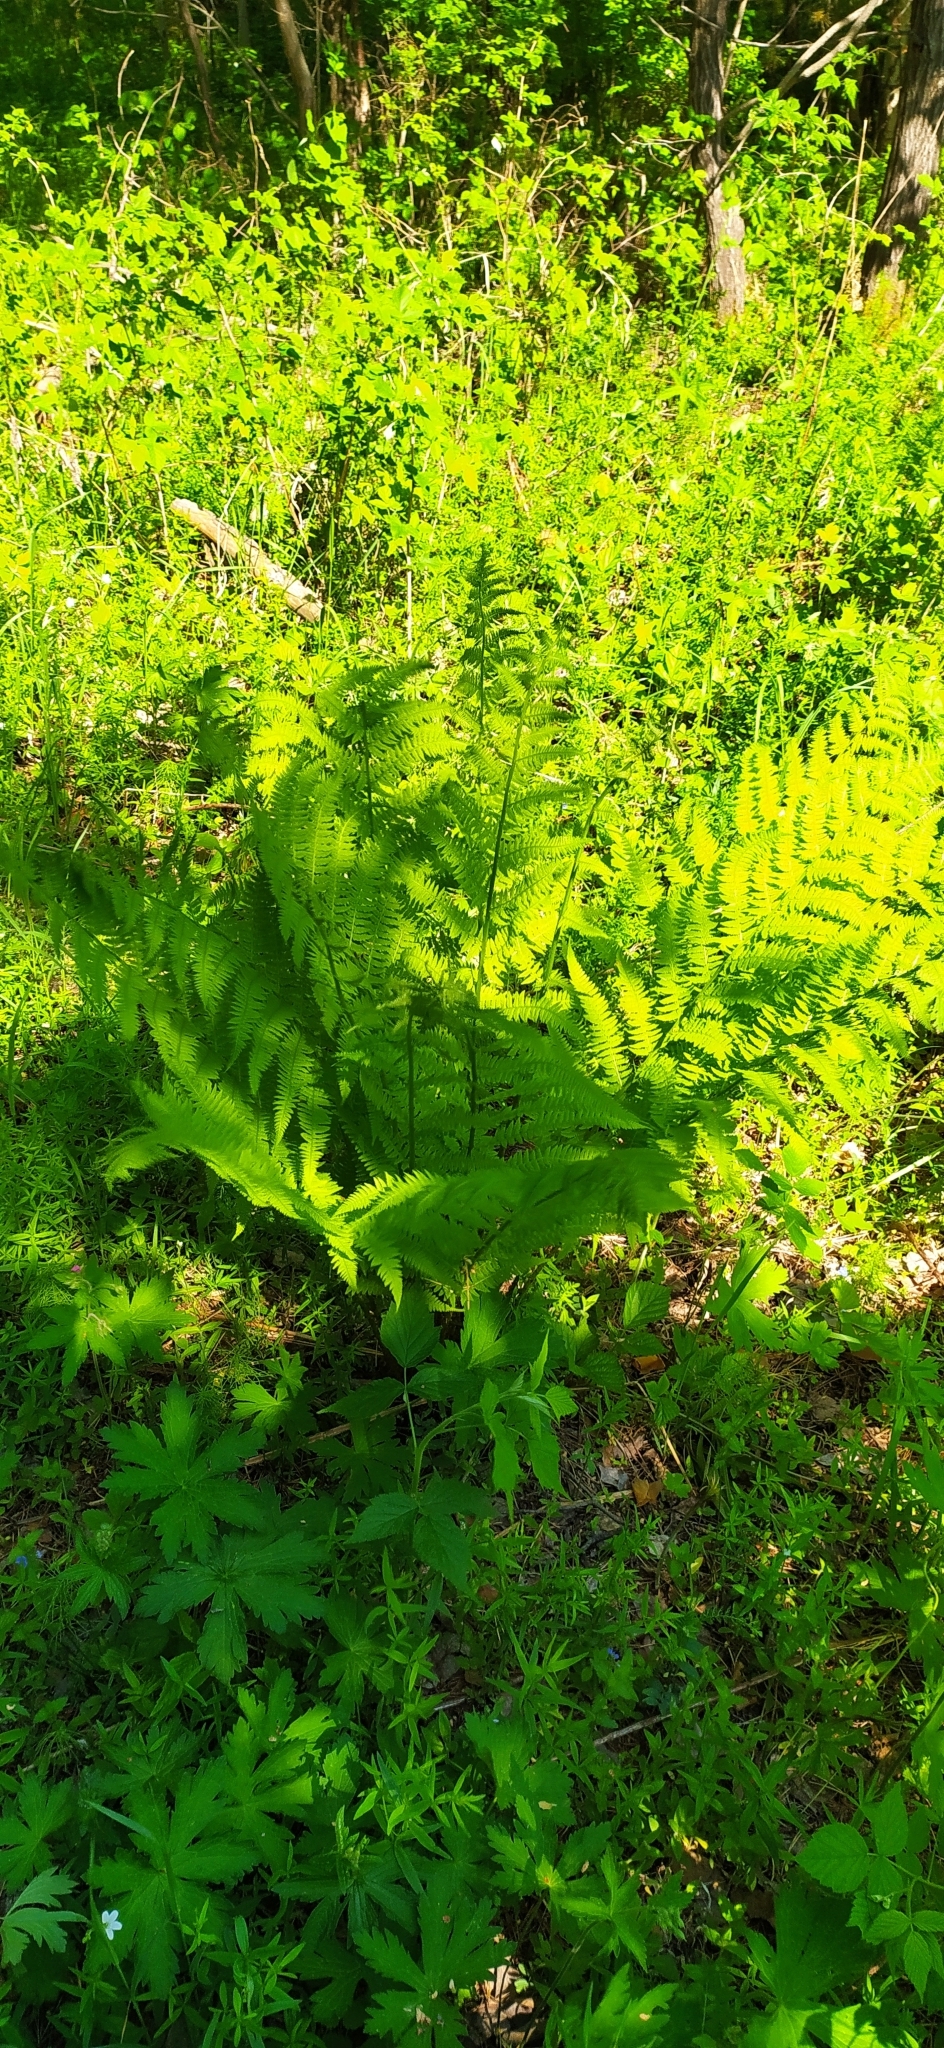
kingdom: Plantae
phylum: Tracheophyta
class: Polypodiopsida
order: Polypodiales
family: Athyriaceae
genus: Athyrium
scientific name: Athyrium filix-femina
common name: Lady fern
